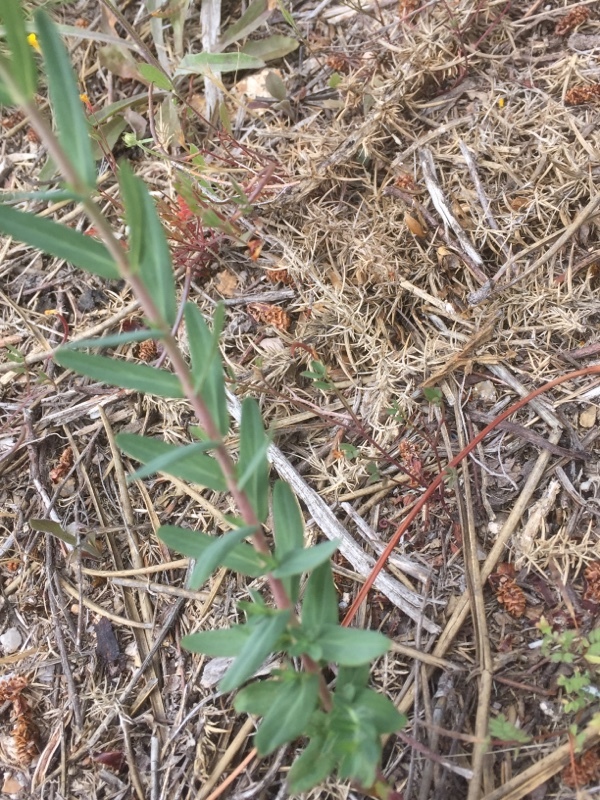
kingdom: Plantae
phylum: Tracheophyta
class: Magnoliopsida
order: Malpighiales
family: Hypericaceae
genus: Hypericum
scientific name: Hypericum linariifolium
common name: Toadflax-leaved st. john's-wort
